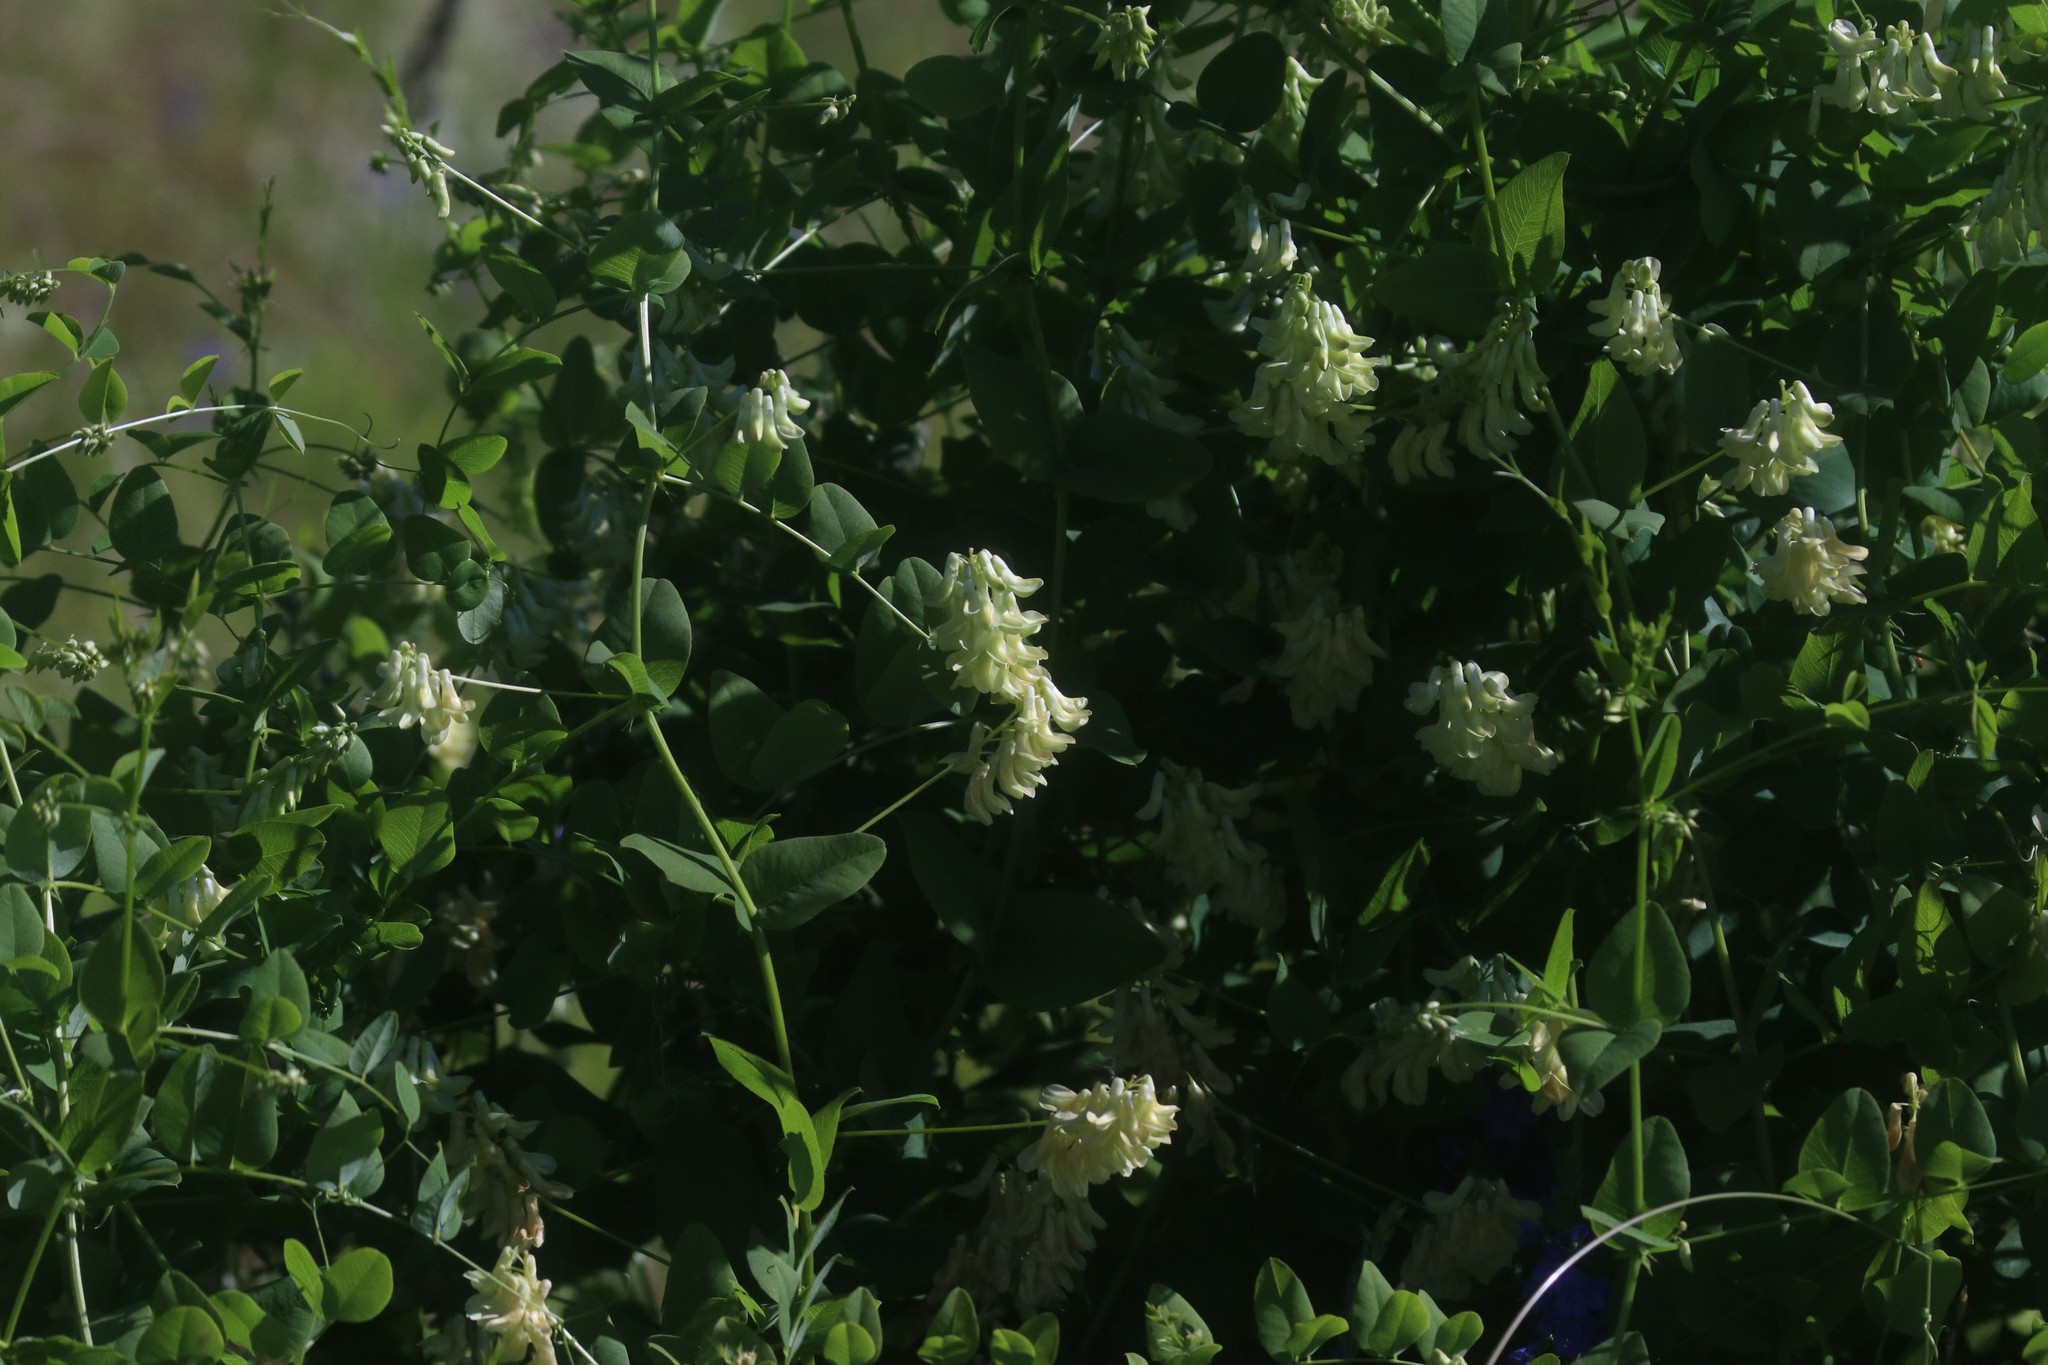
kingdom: Plantae
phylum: Tracheophyta
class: Magnoliopsida
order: Fabales
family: Fabaceae
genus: Vicia
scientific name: Vicia pisiformis
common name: Pale-flower vetch
